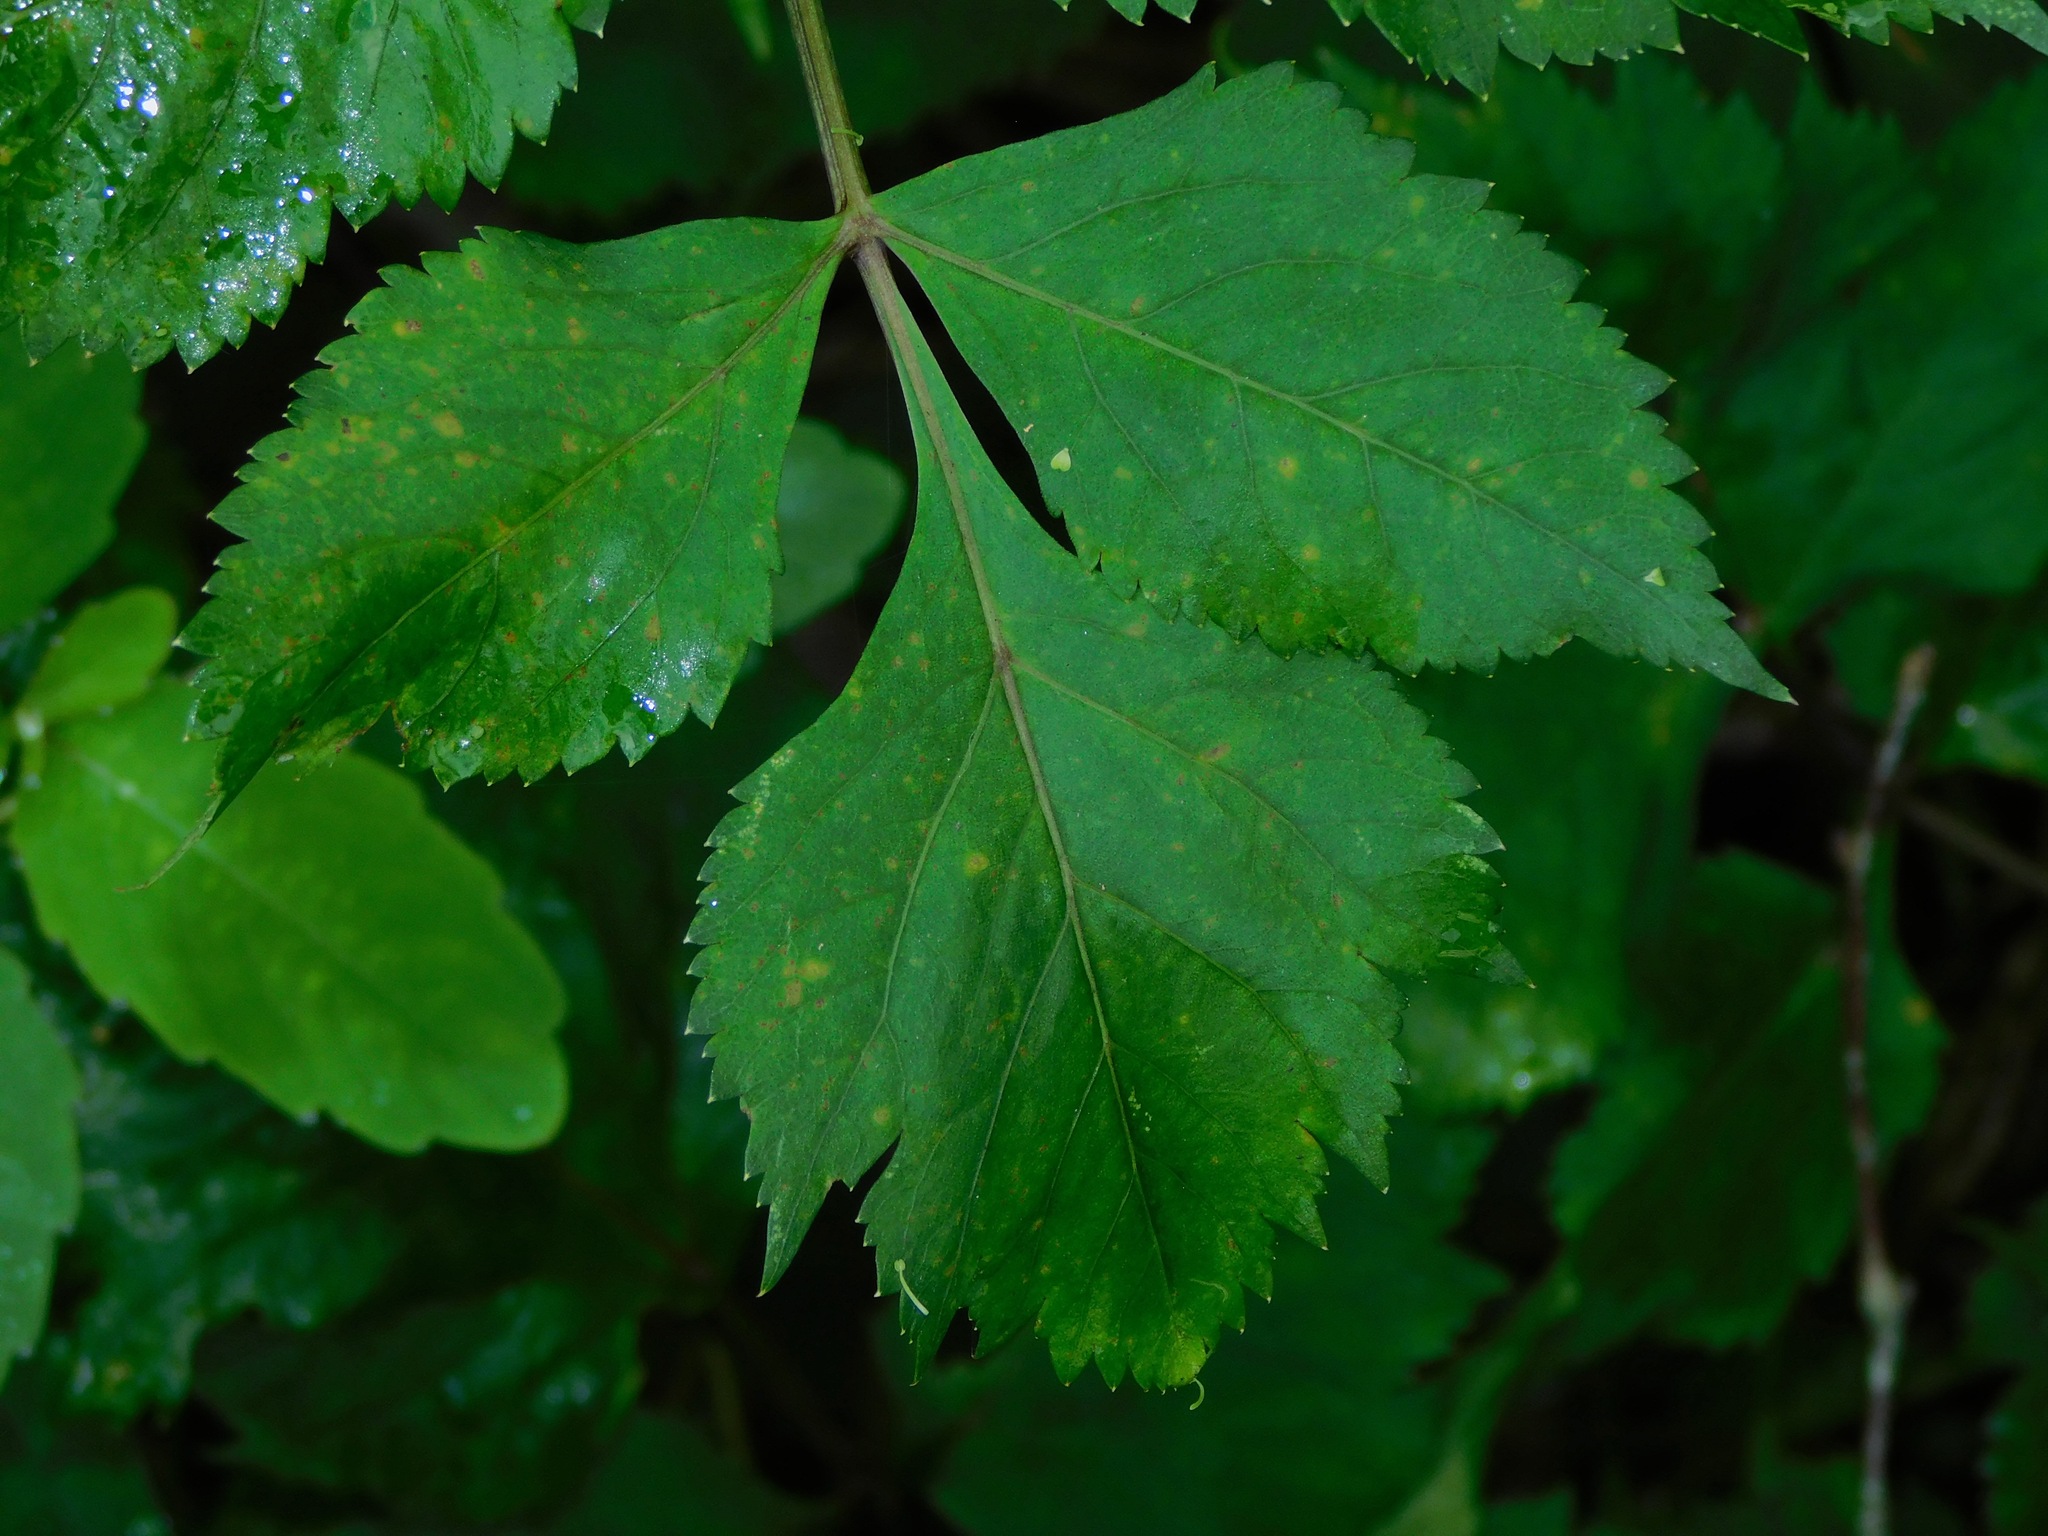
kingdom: Plantae
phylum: Tracheophyta
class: Magnoliopsida
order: Apiales
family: Apiaceae
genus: Angelica
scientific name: Angelica triquinata
